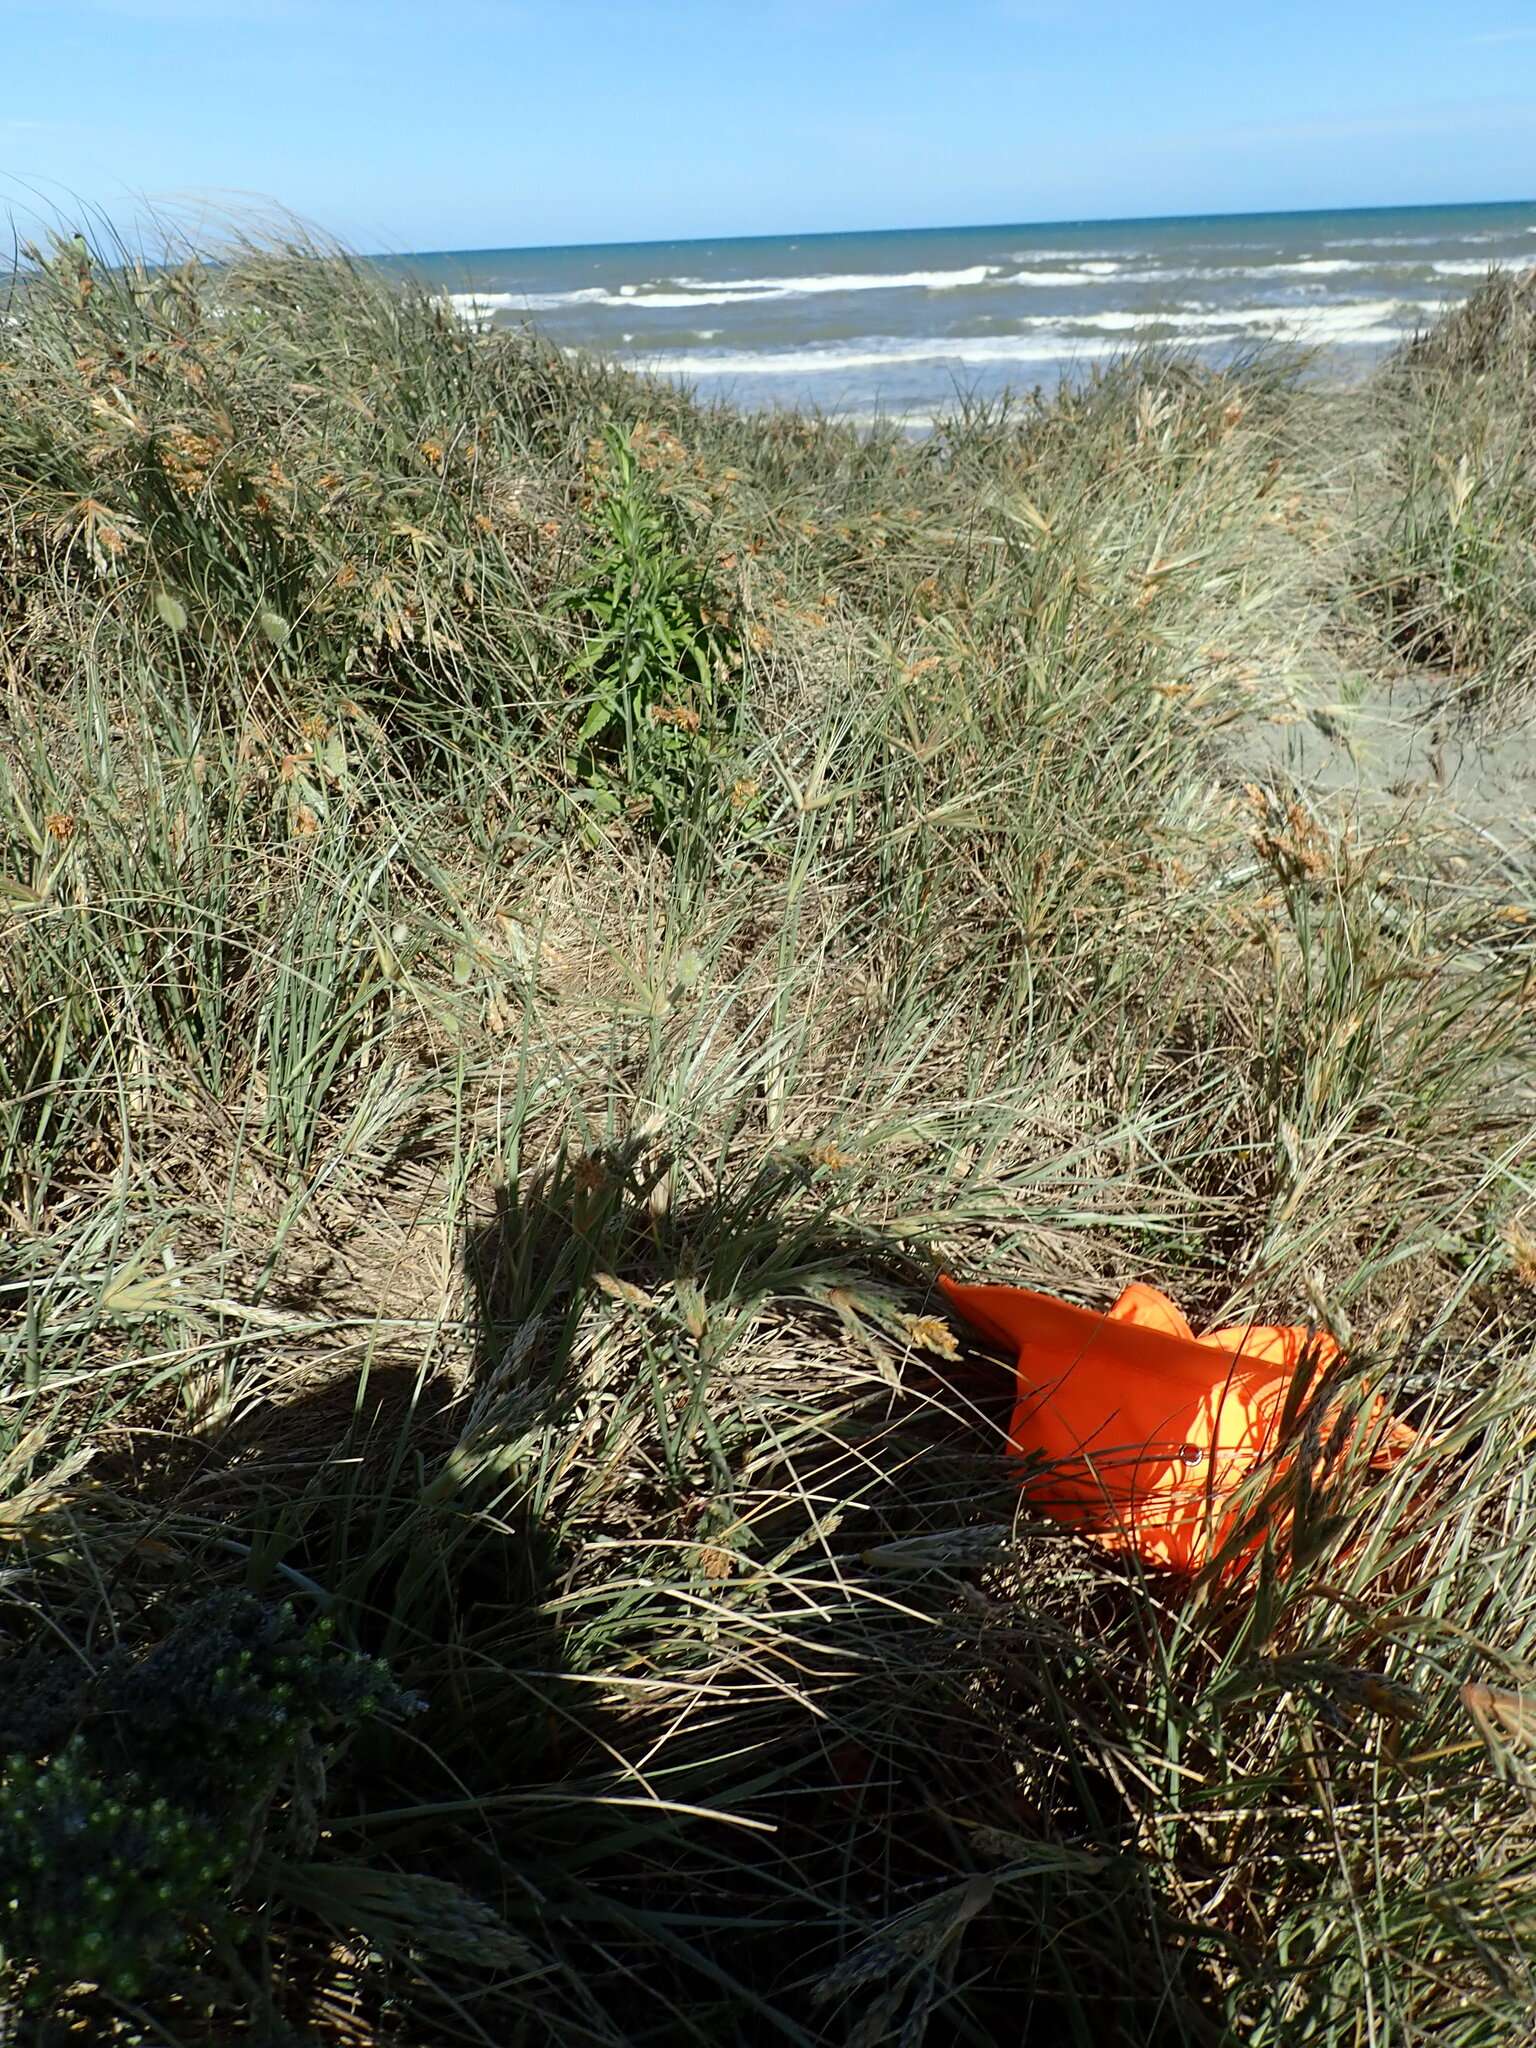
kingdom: Plantae
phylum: Tracheophyta
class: Liliopsida
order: Poales
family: Poaceae
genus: Spinifex
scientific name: Spinifex sericeus
